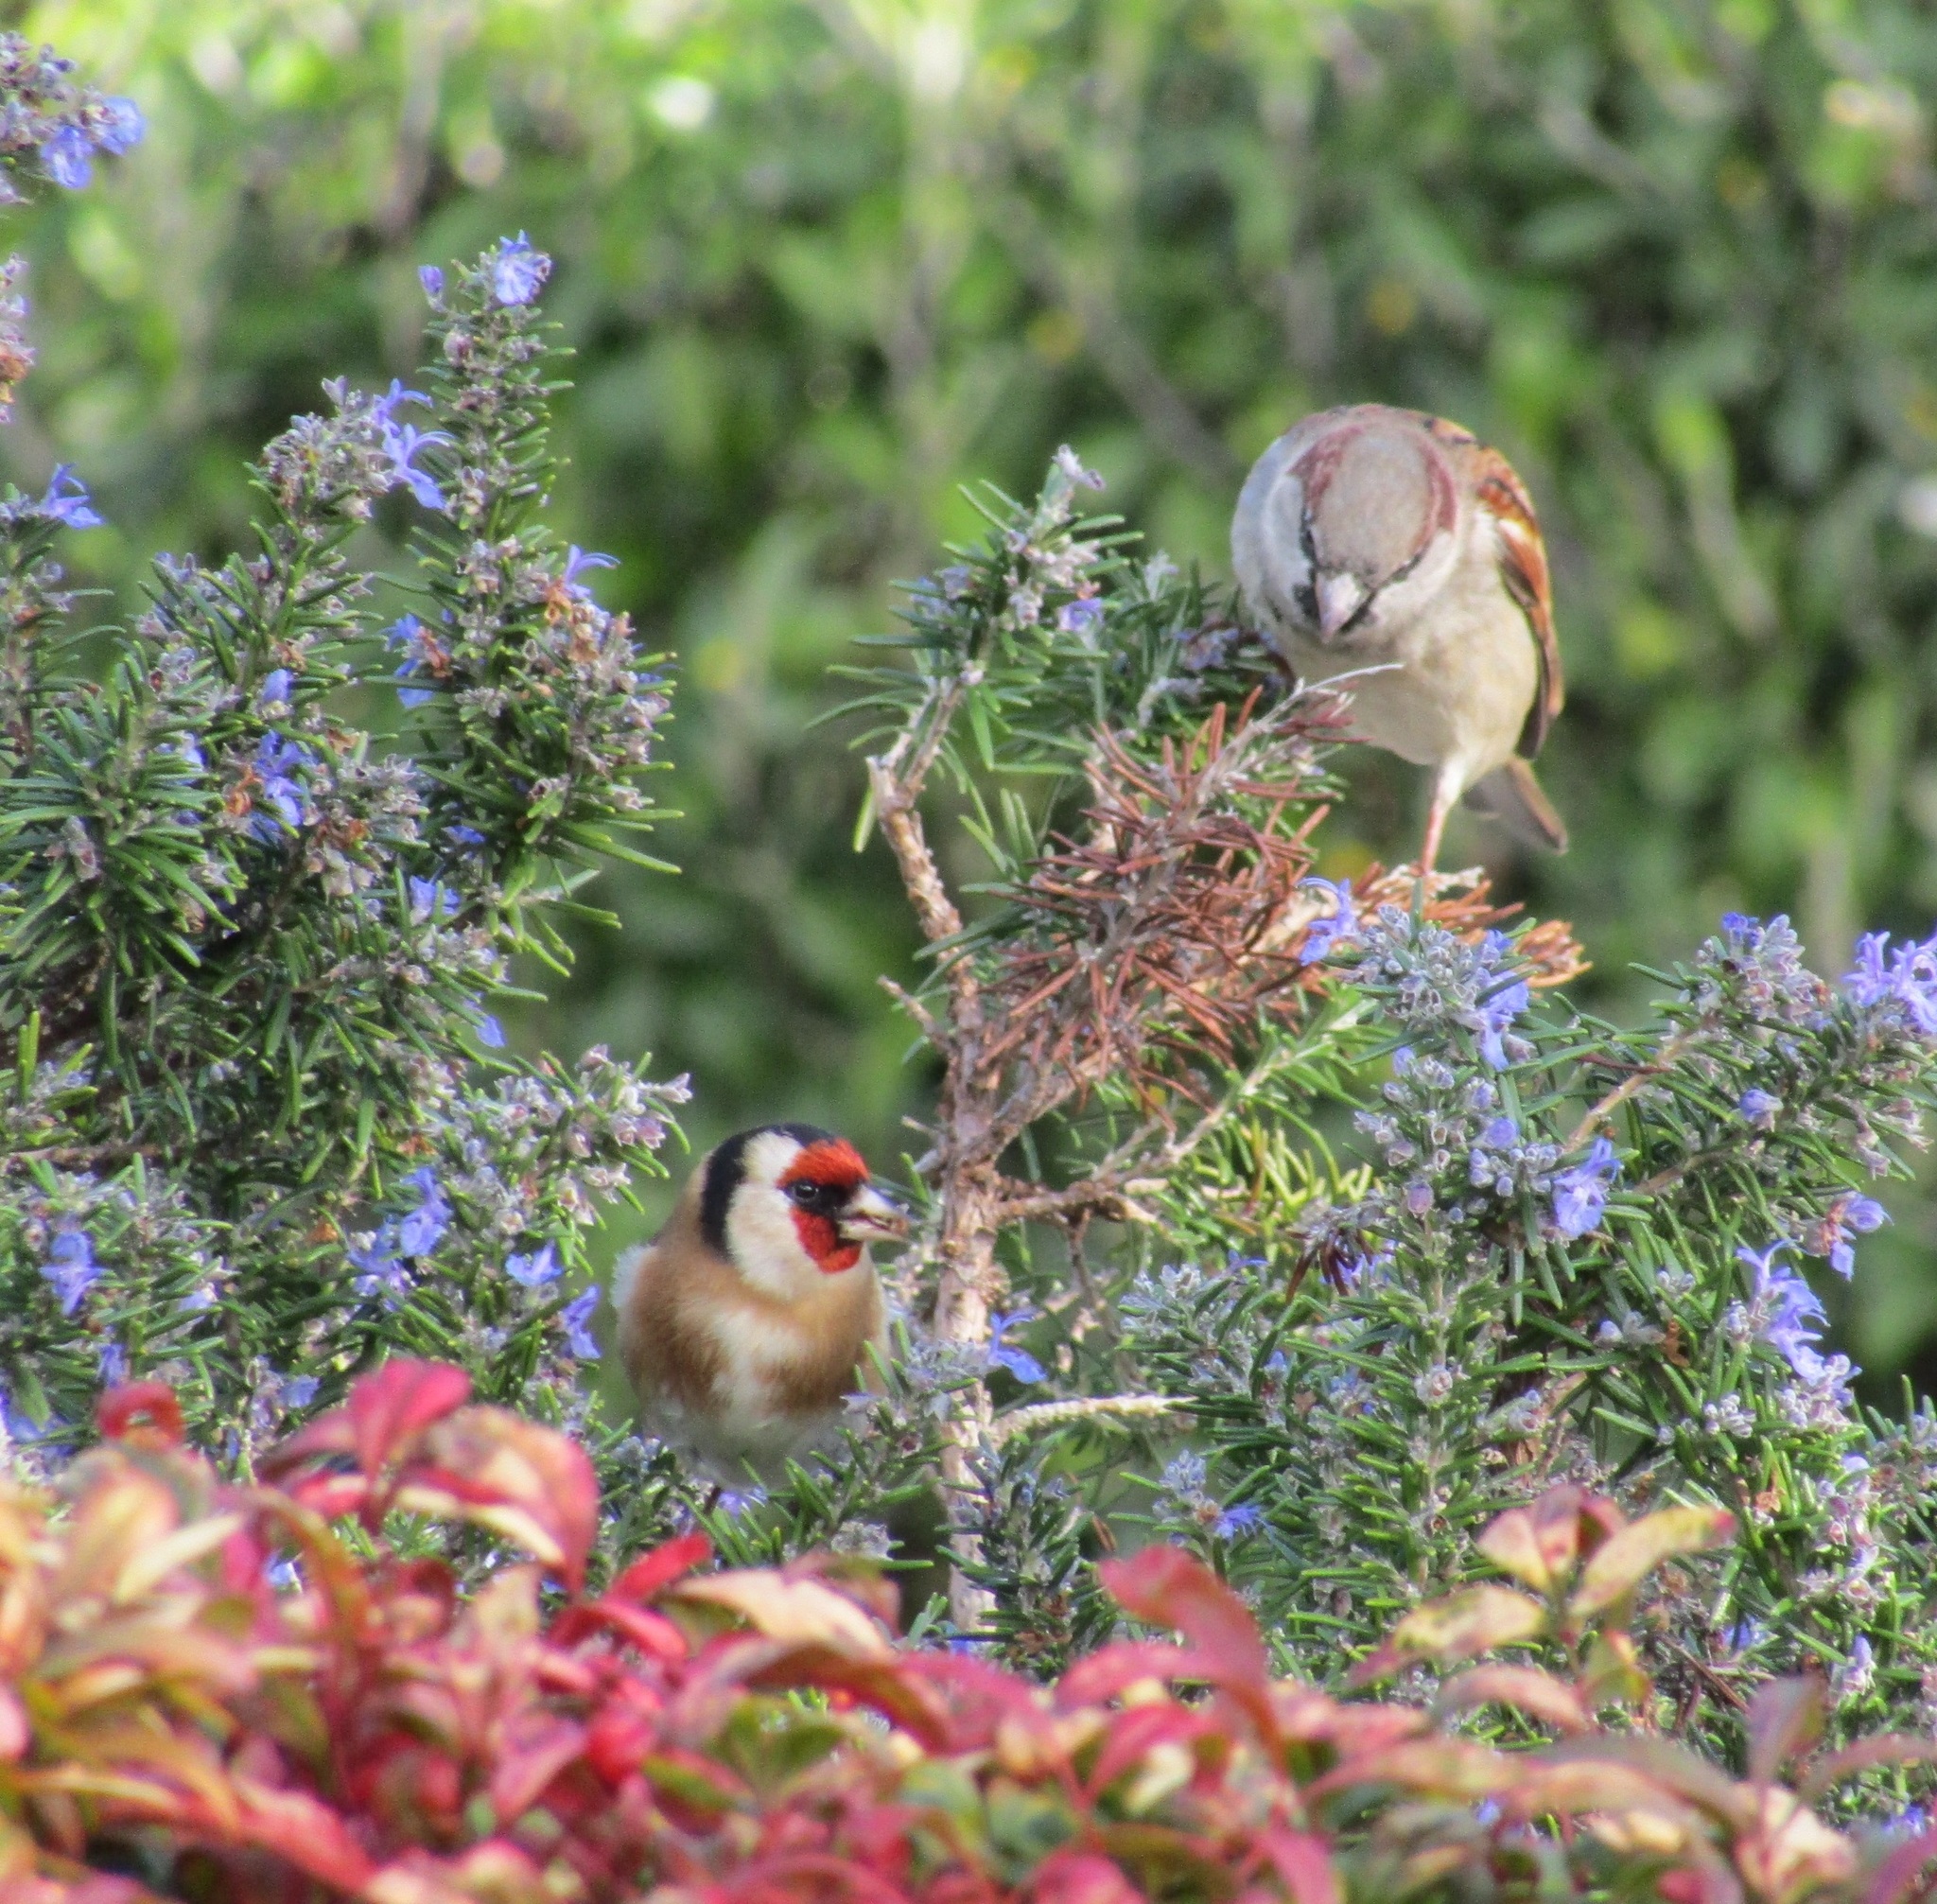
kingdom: Animalia
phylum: Chordata
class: Aves
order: Passeriformes
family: Passeridae
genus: Passer
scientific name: Passer domesticus
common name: House sparrow
